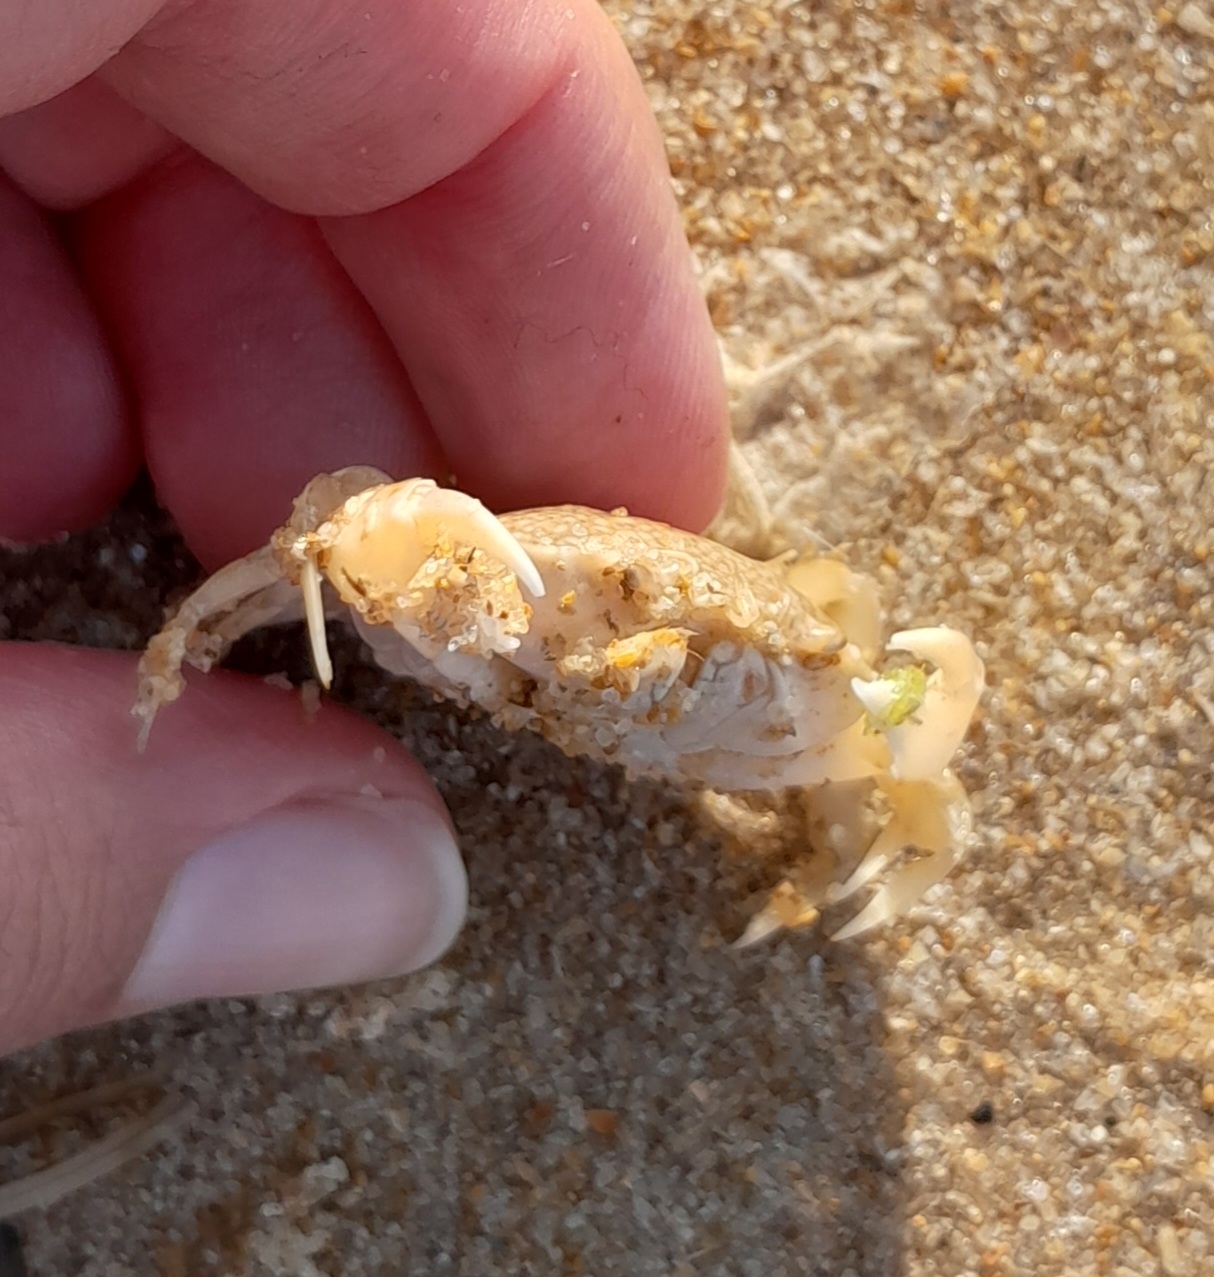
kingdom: Animalia
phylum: Arthropoda
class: Malacostraca
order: Decapoda
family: Carcinidae
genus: Portumnus
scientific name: Portumnus latipes
